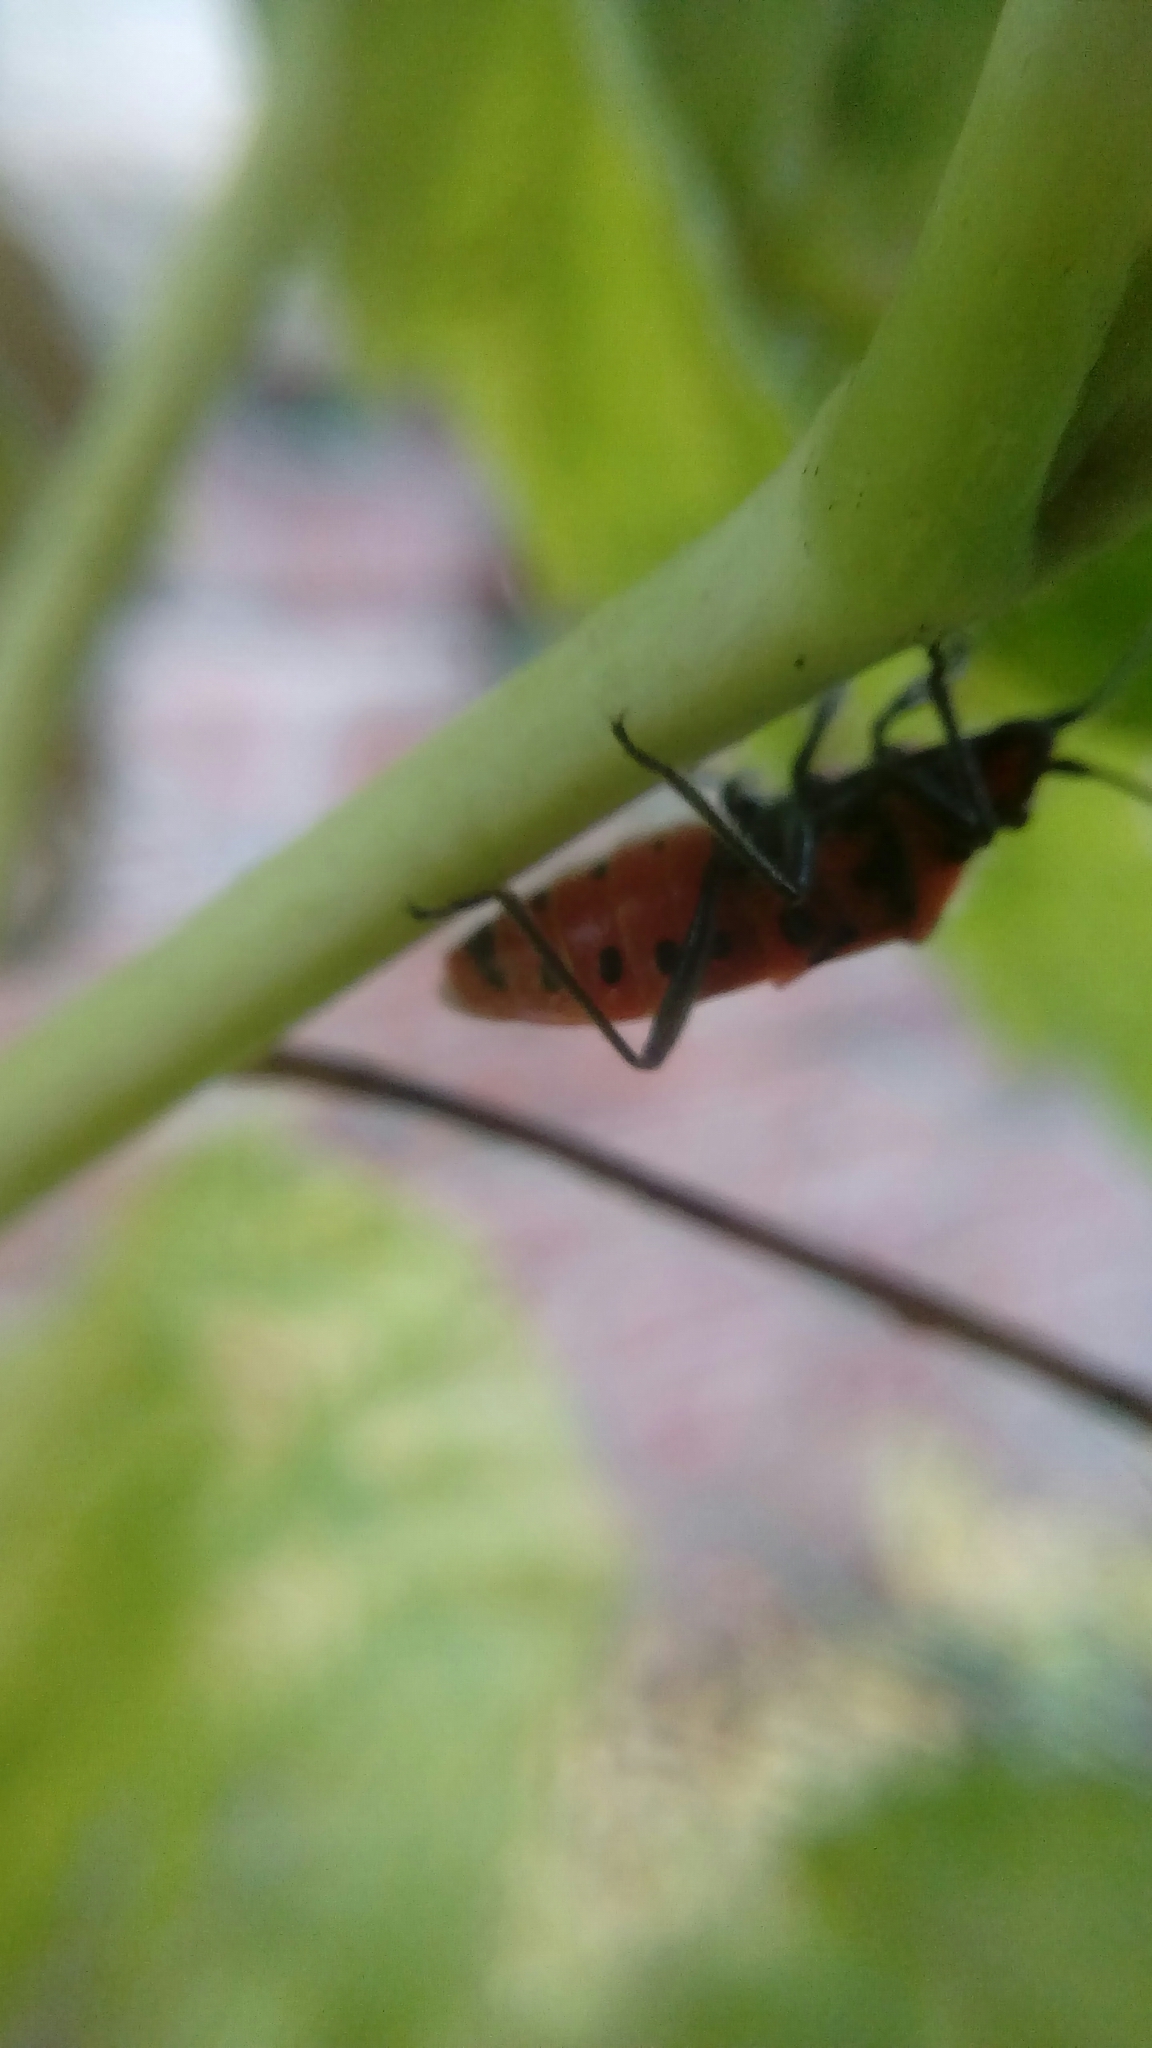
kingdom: Animalia
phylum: Arthropoda
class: Insecta
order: Hemiptera
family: Rhopalidae
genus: Corizus
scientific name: Corizus hyoscyami
